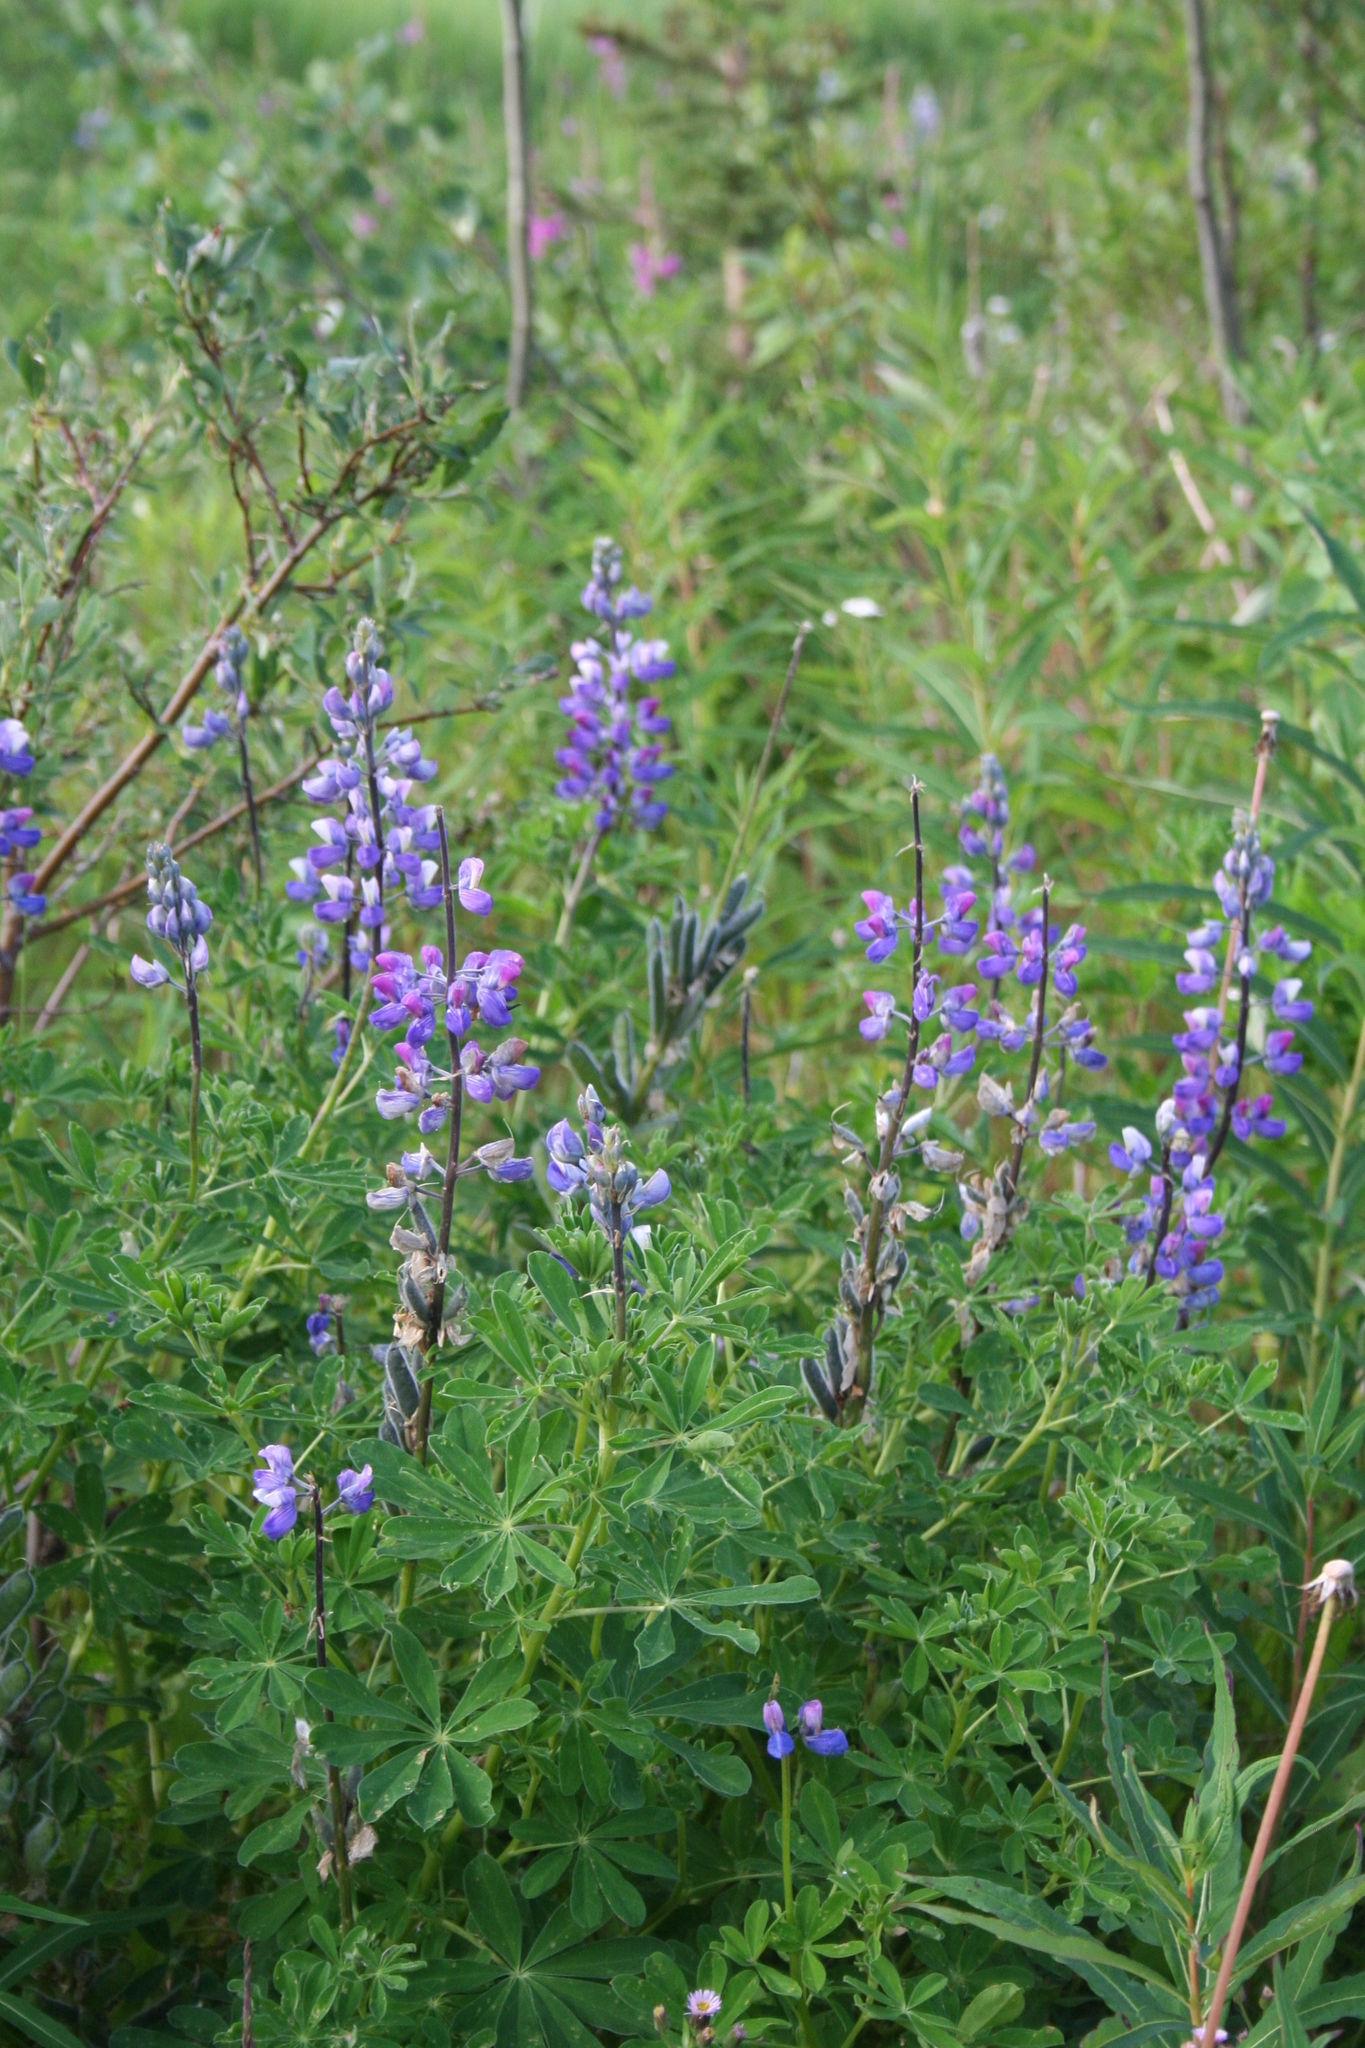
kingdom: Plantae
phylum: Tracheophyta
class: Magnoliopsida
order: Fabales
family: Fabaceae
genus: Lupinus
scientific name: Lupinus nootkatensis
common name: Nootka lupine
